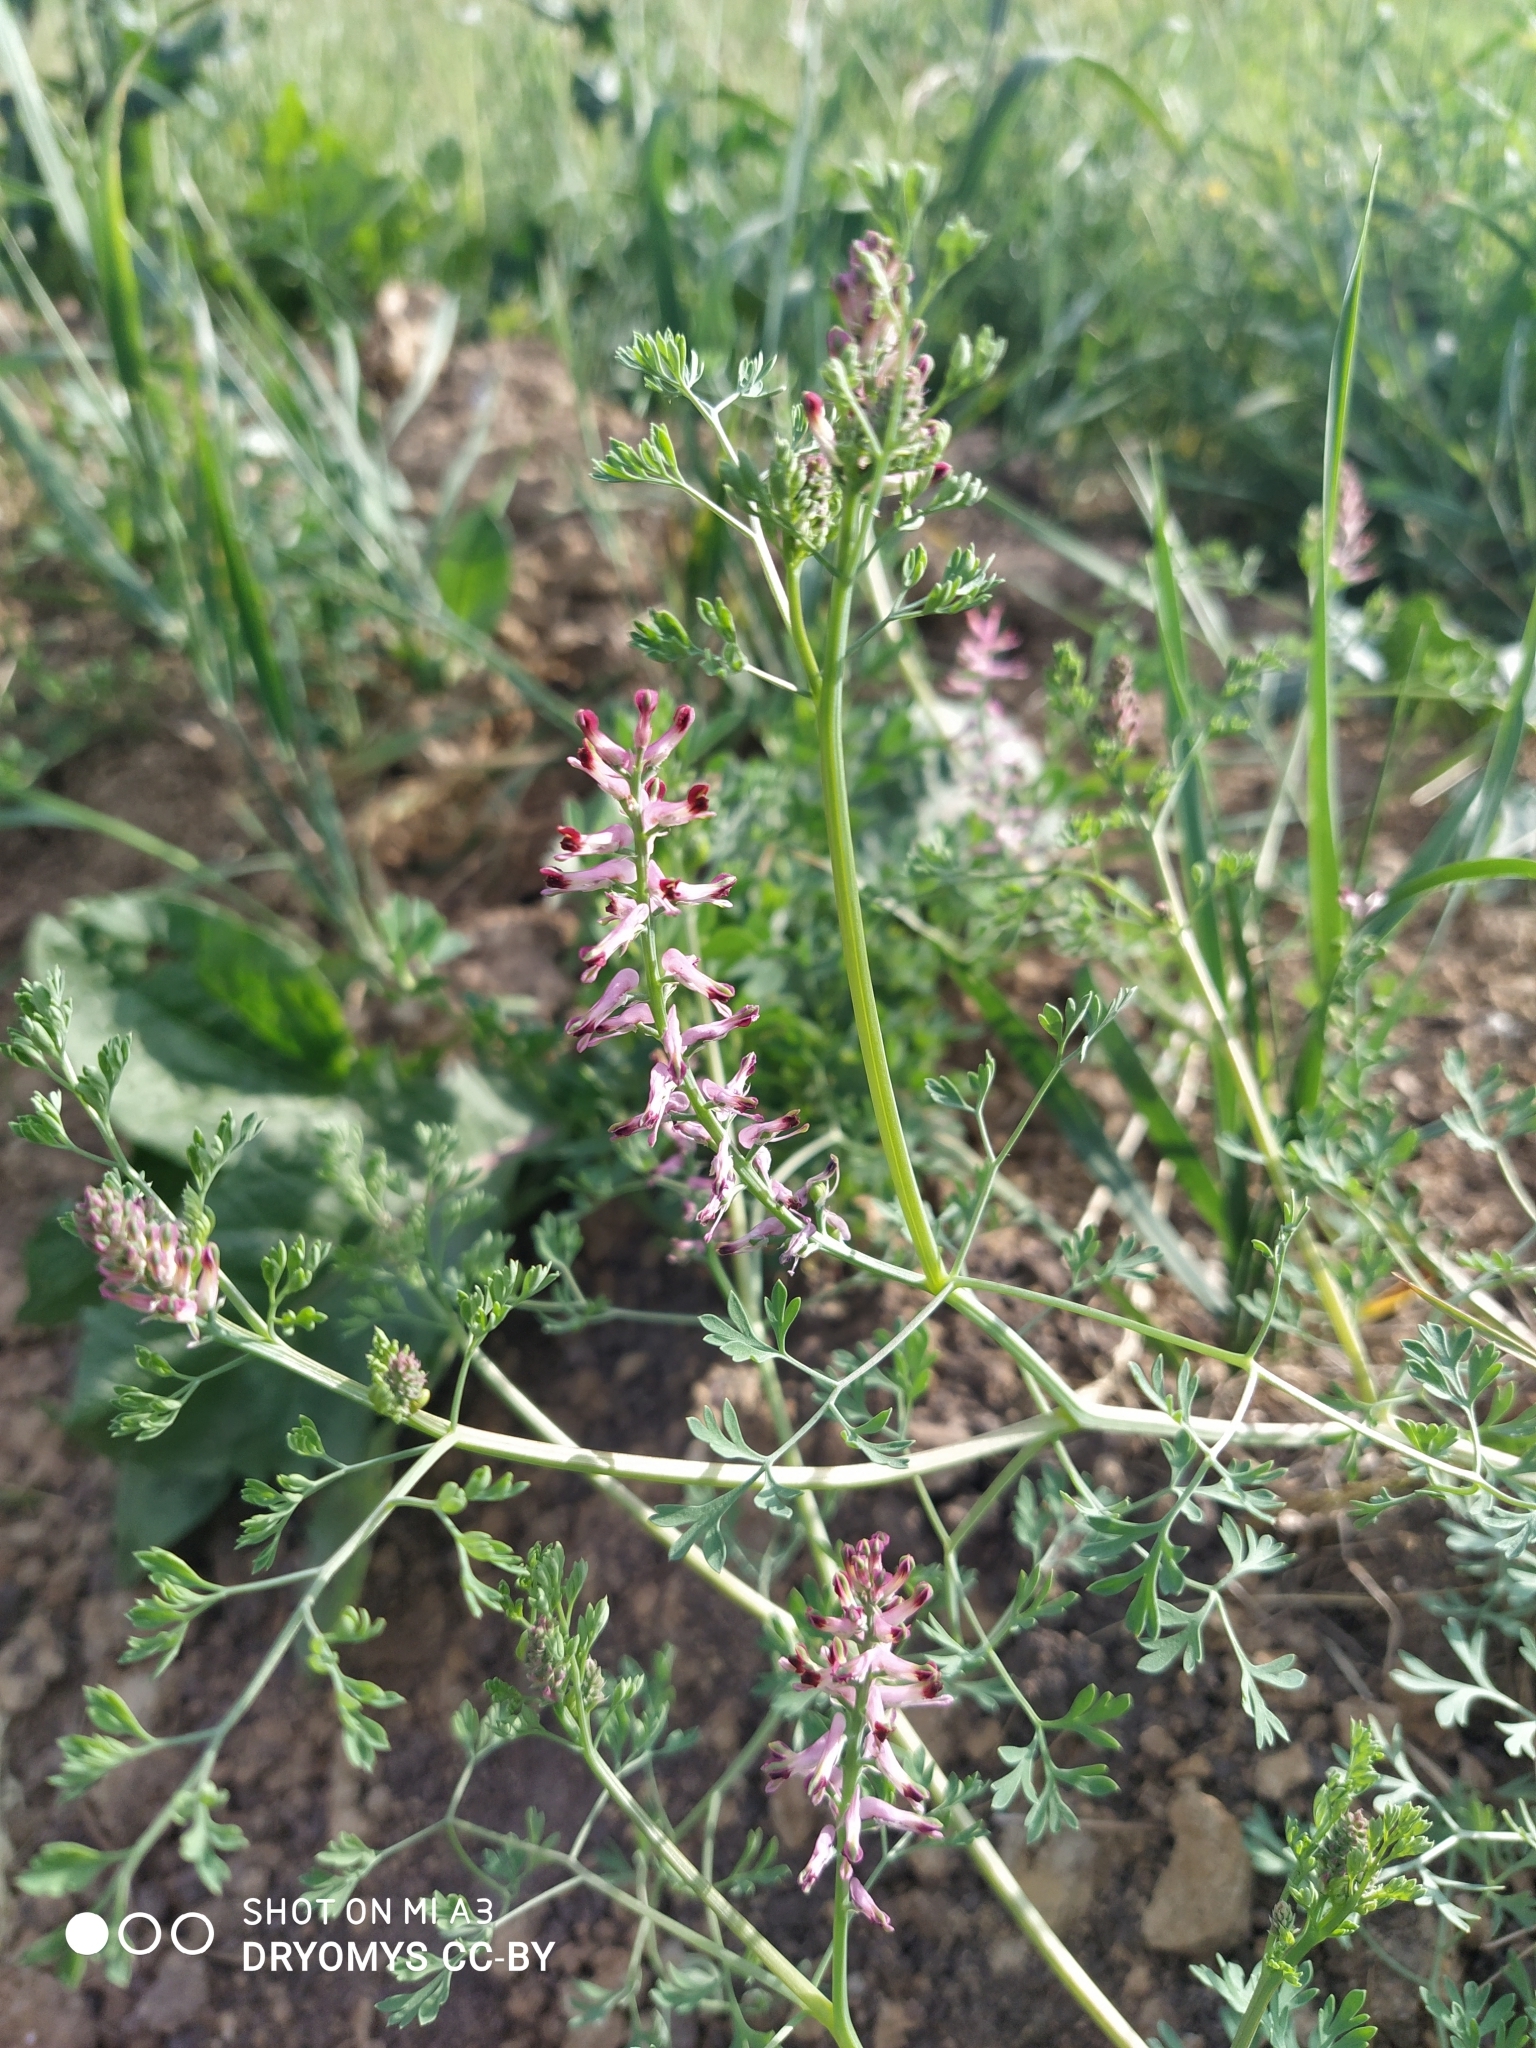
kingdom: Plantae
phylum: Tracheophyta
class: Magnoliopsida
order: Ranunculales
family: Papaveraceae
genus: Fumaria
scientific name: Fumaria officinalis
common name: Common fumitory
